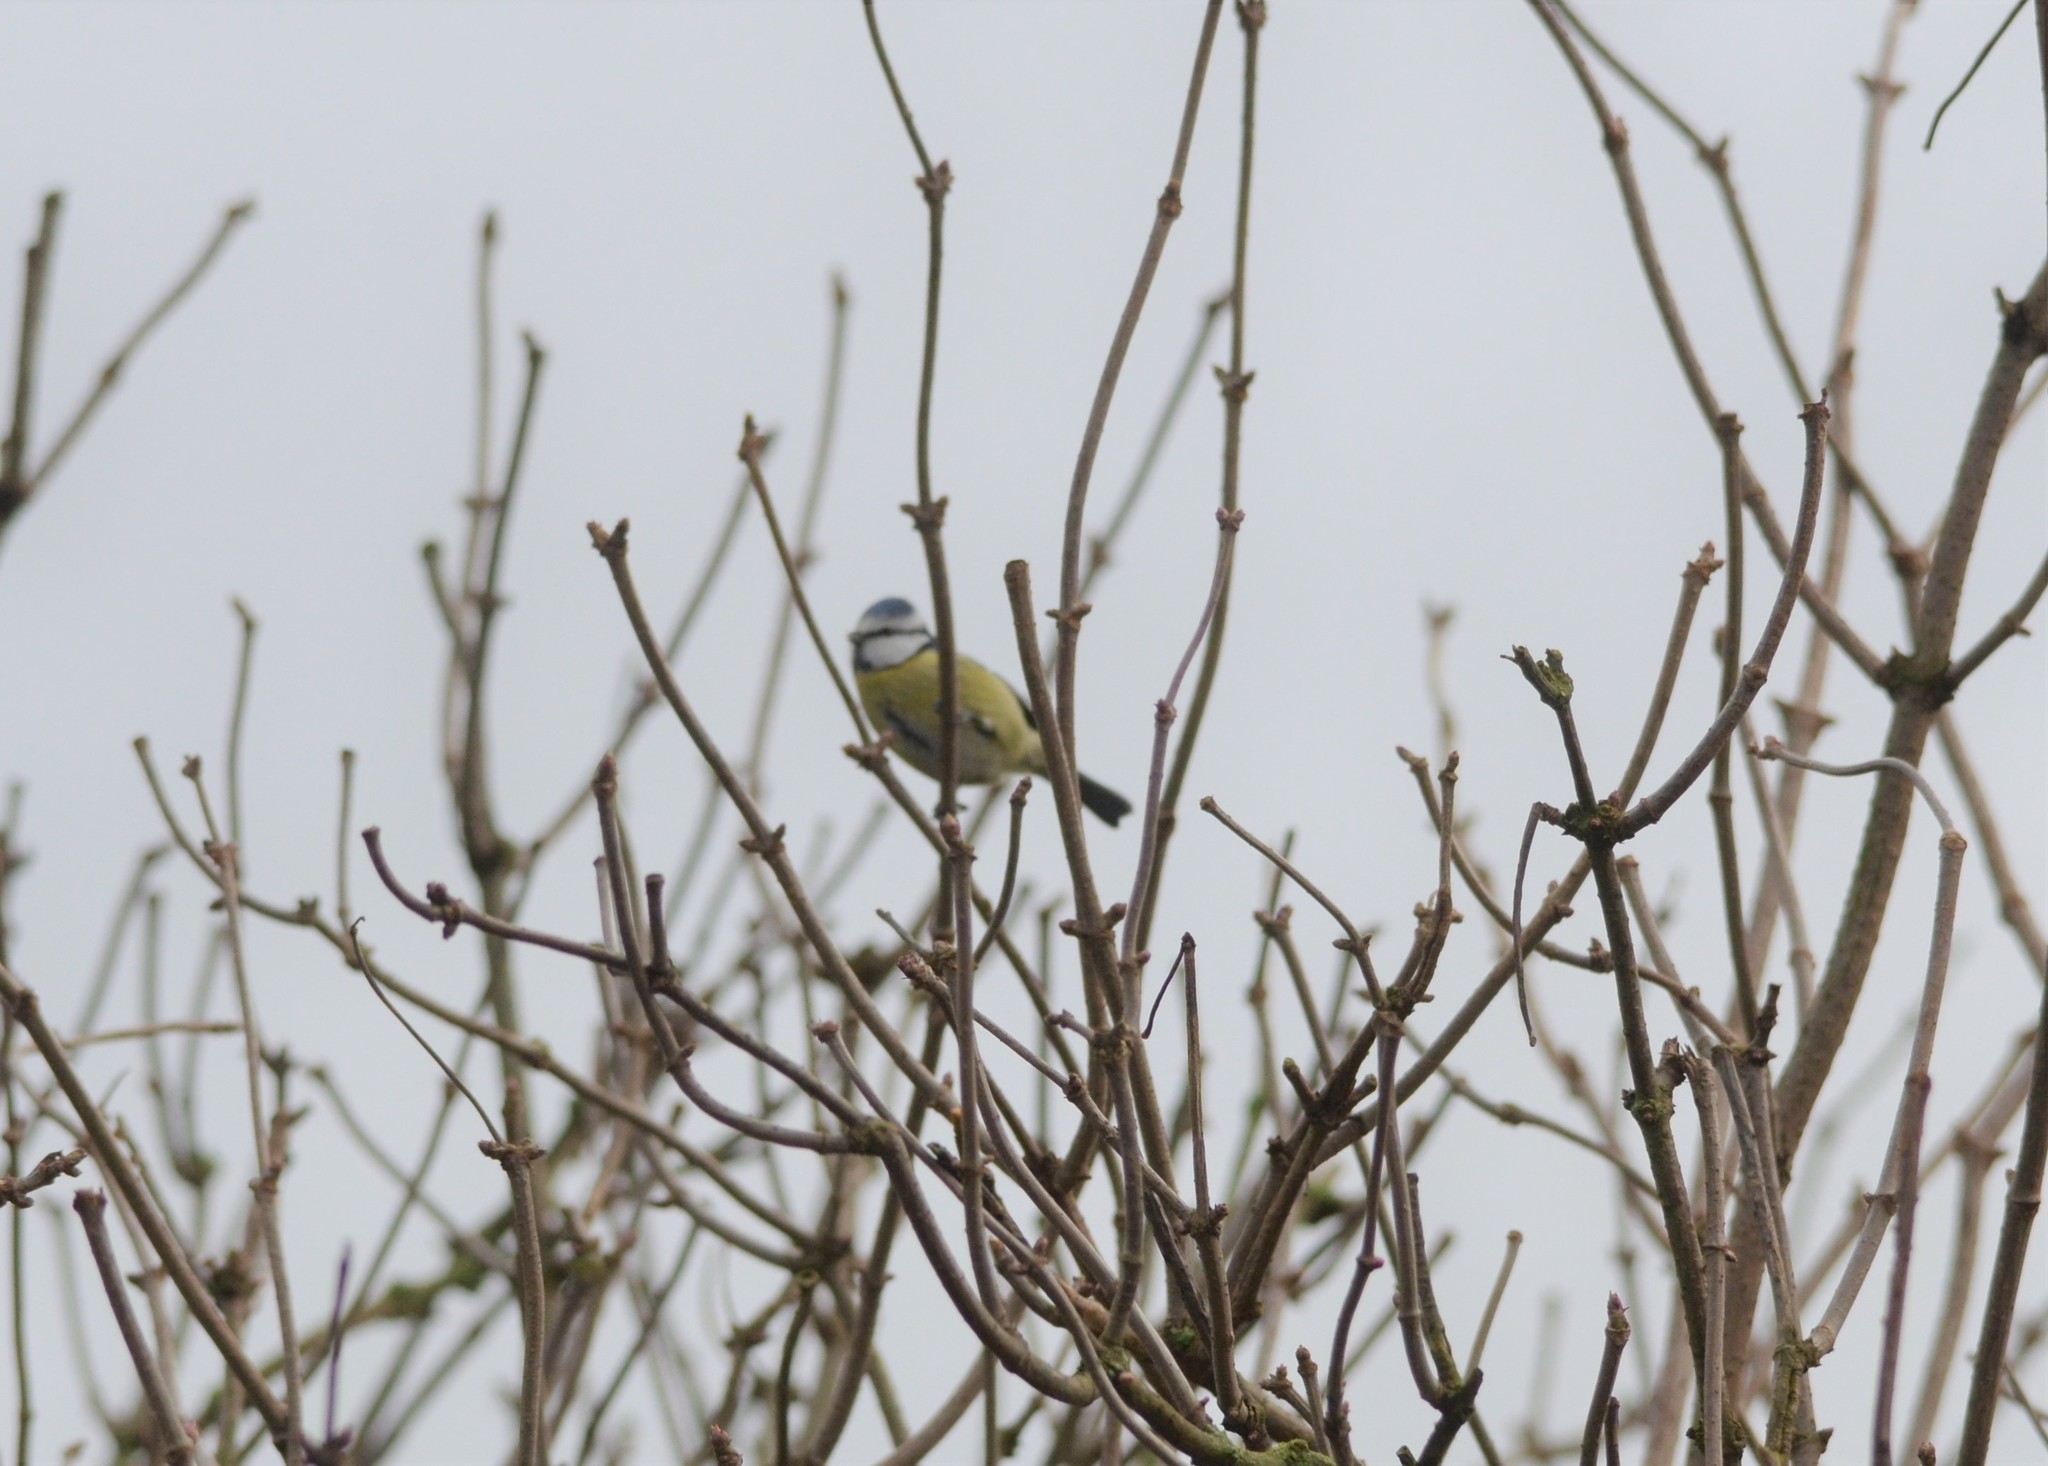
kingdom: Animalia
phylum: Chordata
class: Aves
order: Passeriformes
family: Paridae
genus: Cyanistes
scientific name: Cyanistes caeruleus
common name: Eurasian blue tit
